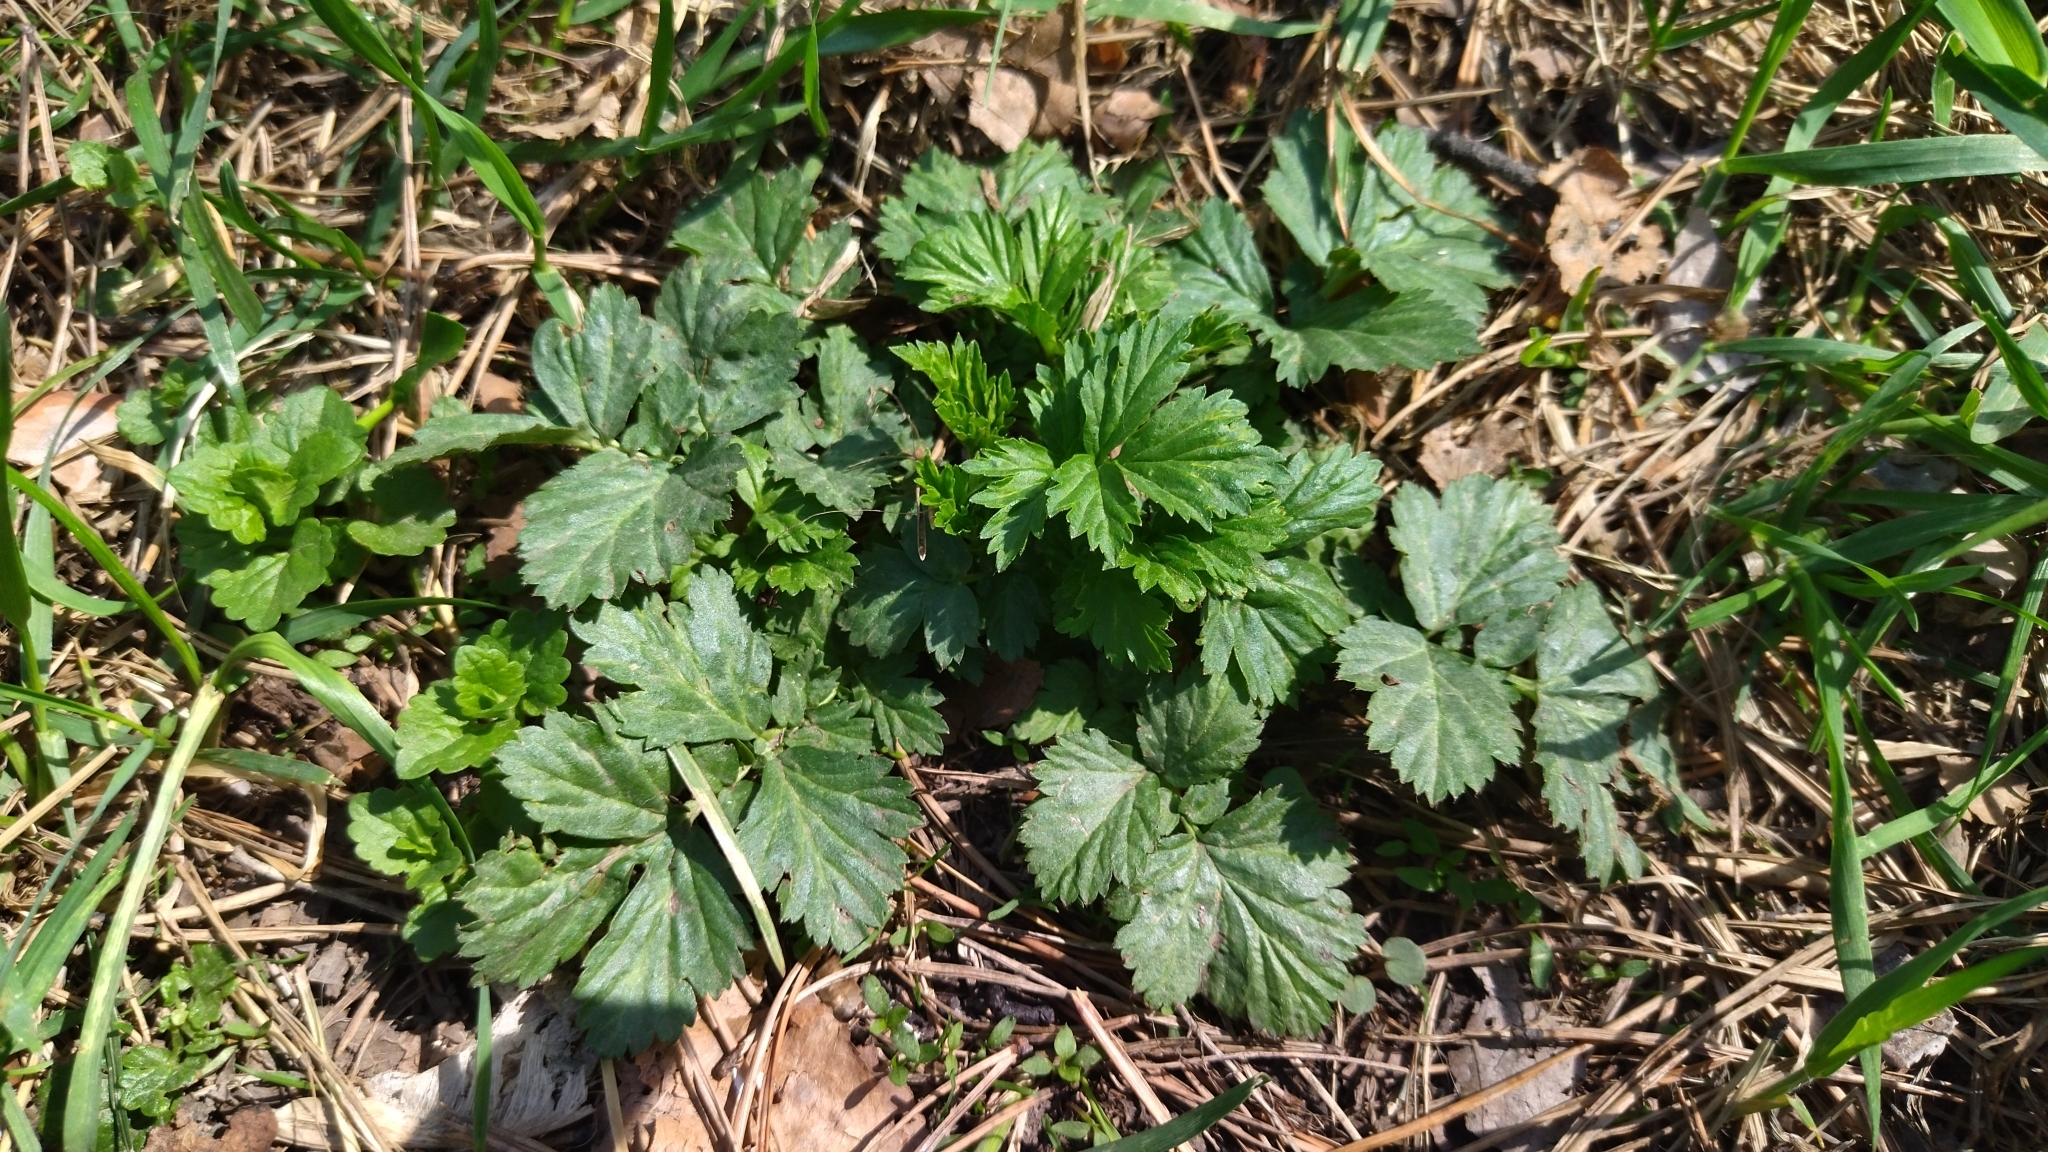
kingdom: Plantae
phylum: Tracheophyta
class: Magnoliopsida
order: Rosales
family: Rosaceae
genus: Geum
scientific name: Geum urbanum
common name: Wood avens
